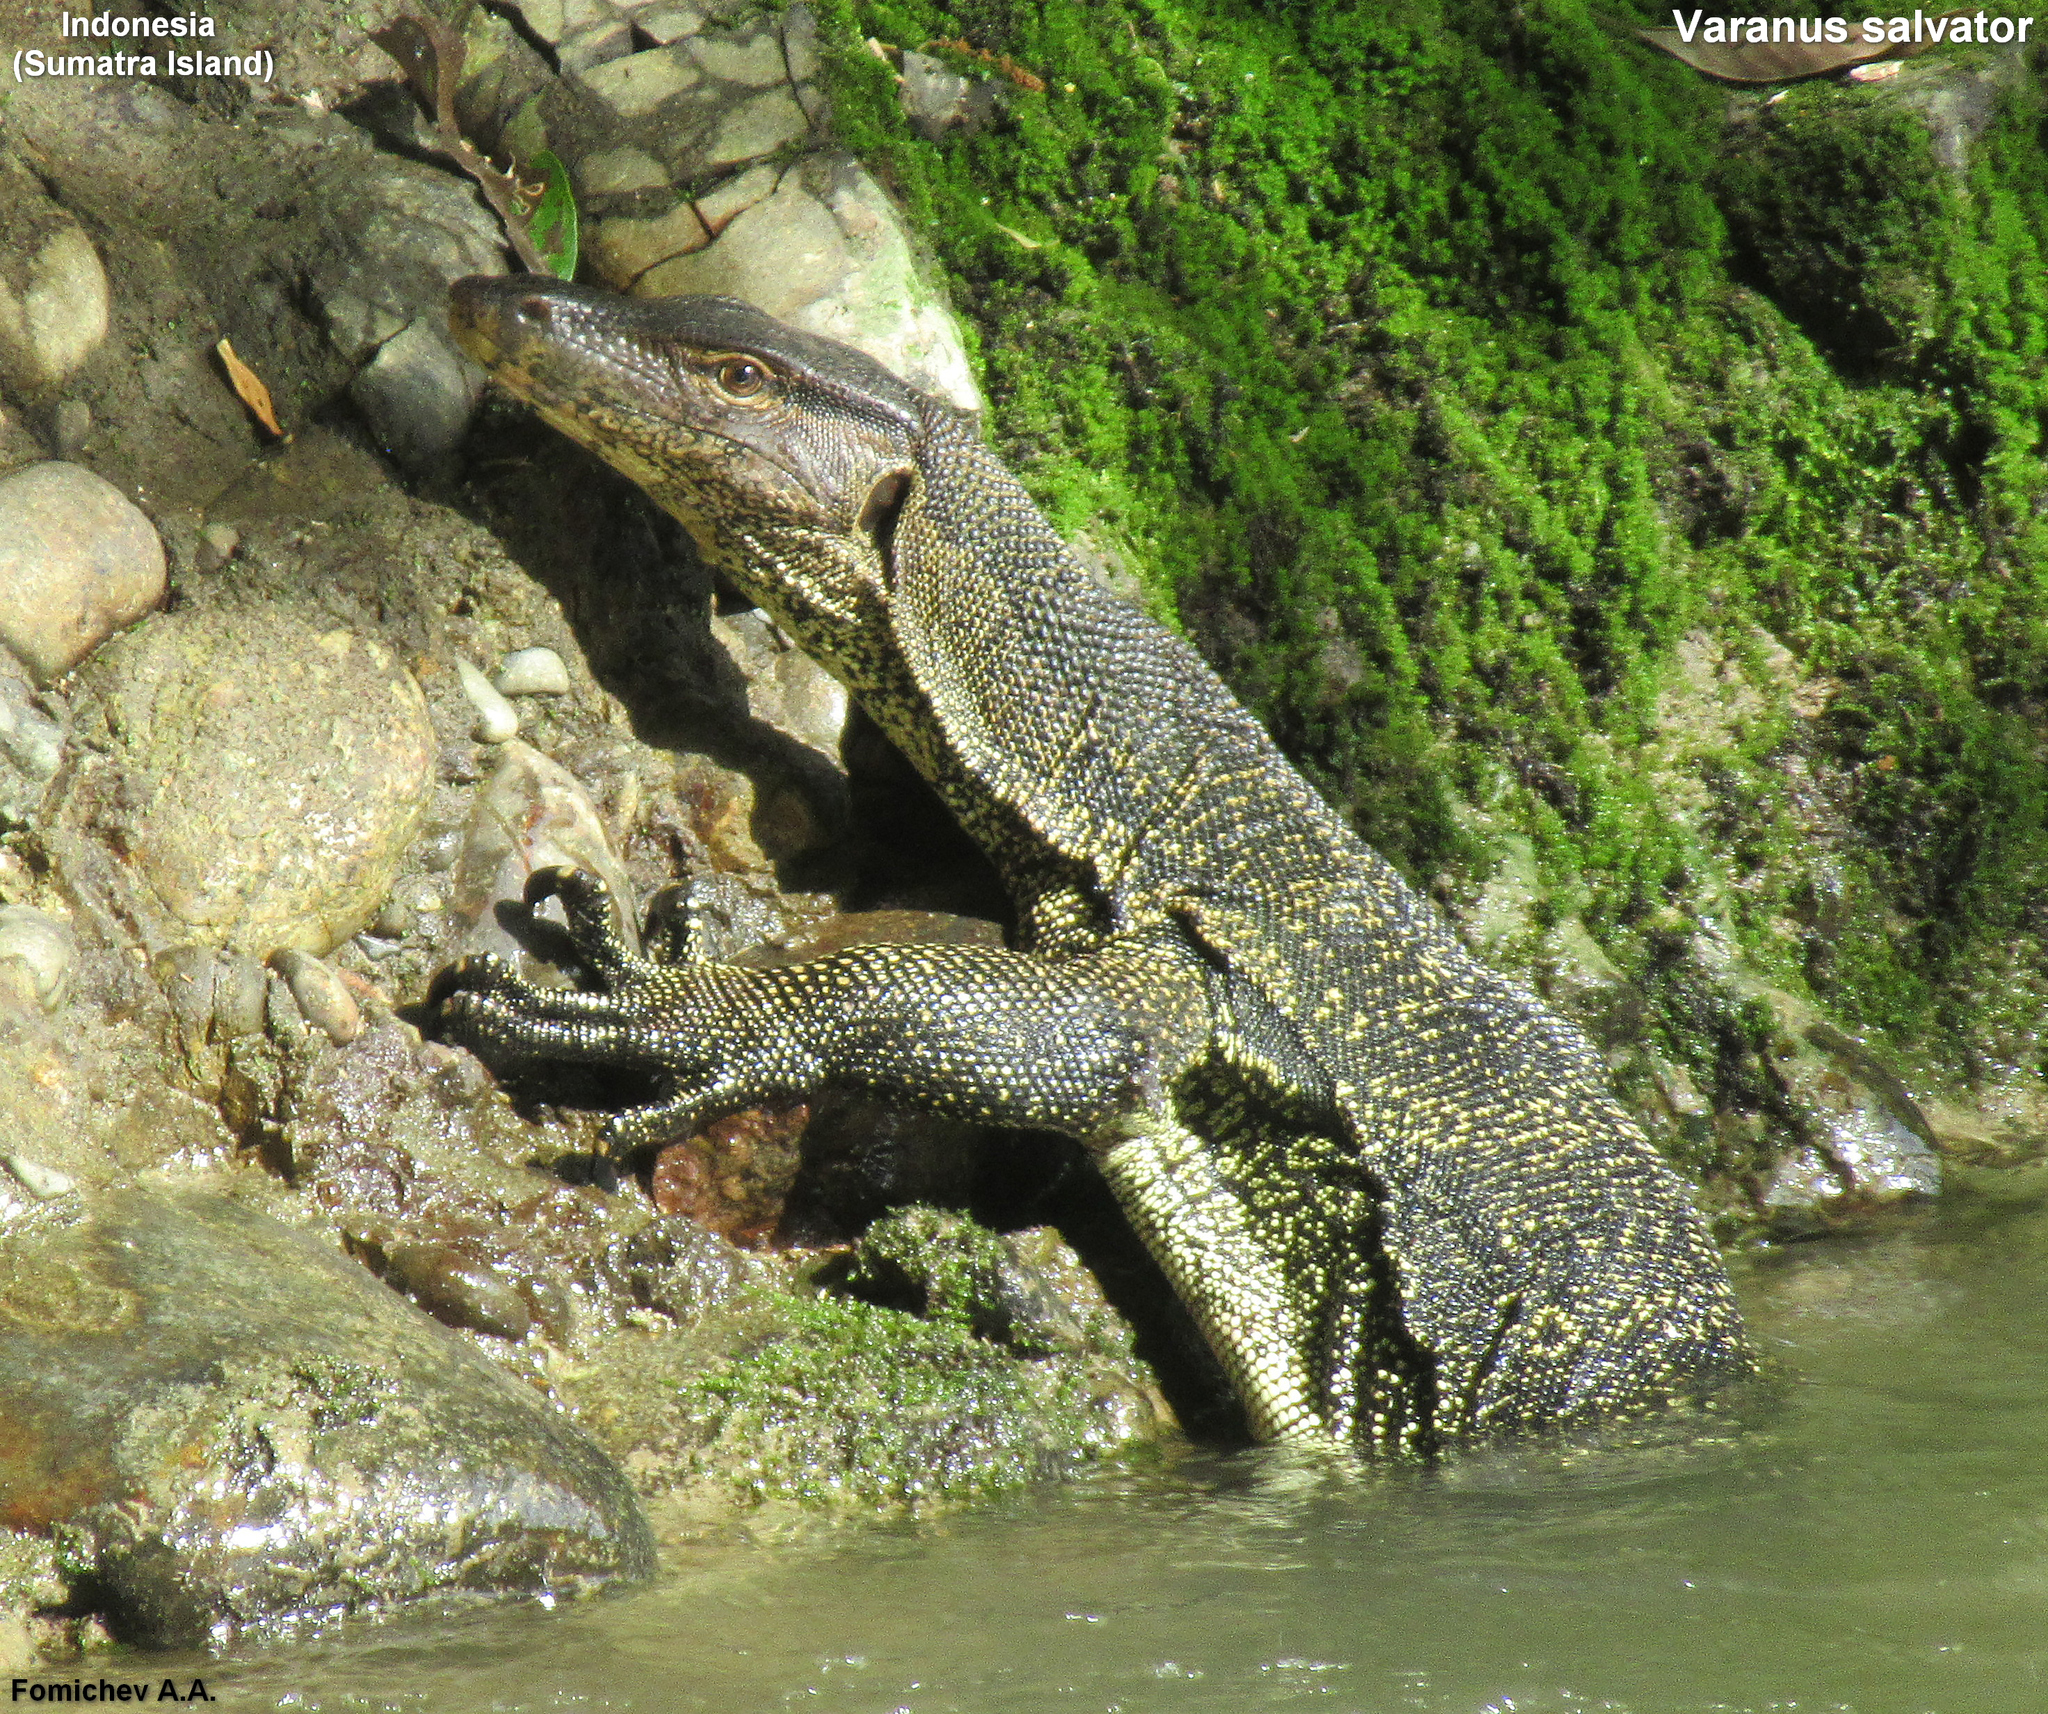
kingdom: Animalia
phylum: Chordata
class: Squamata
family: Varanidae
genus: Varanus
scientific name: Varanus salvator
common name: Common water monitor
